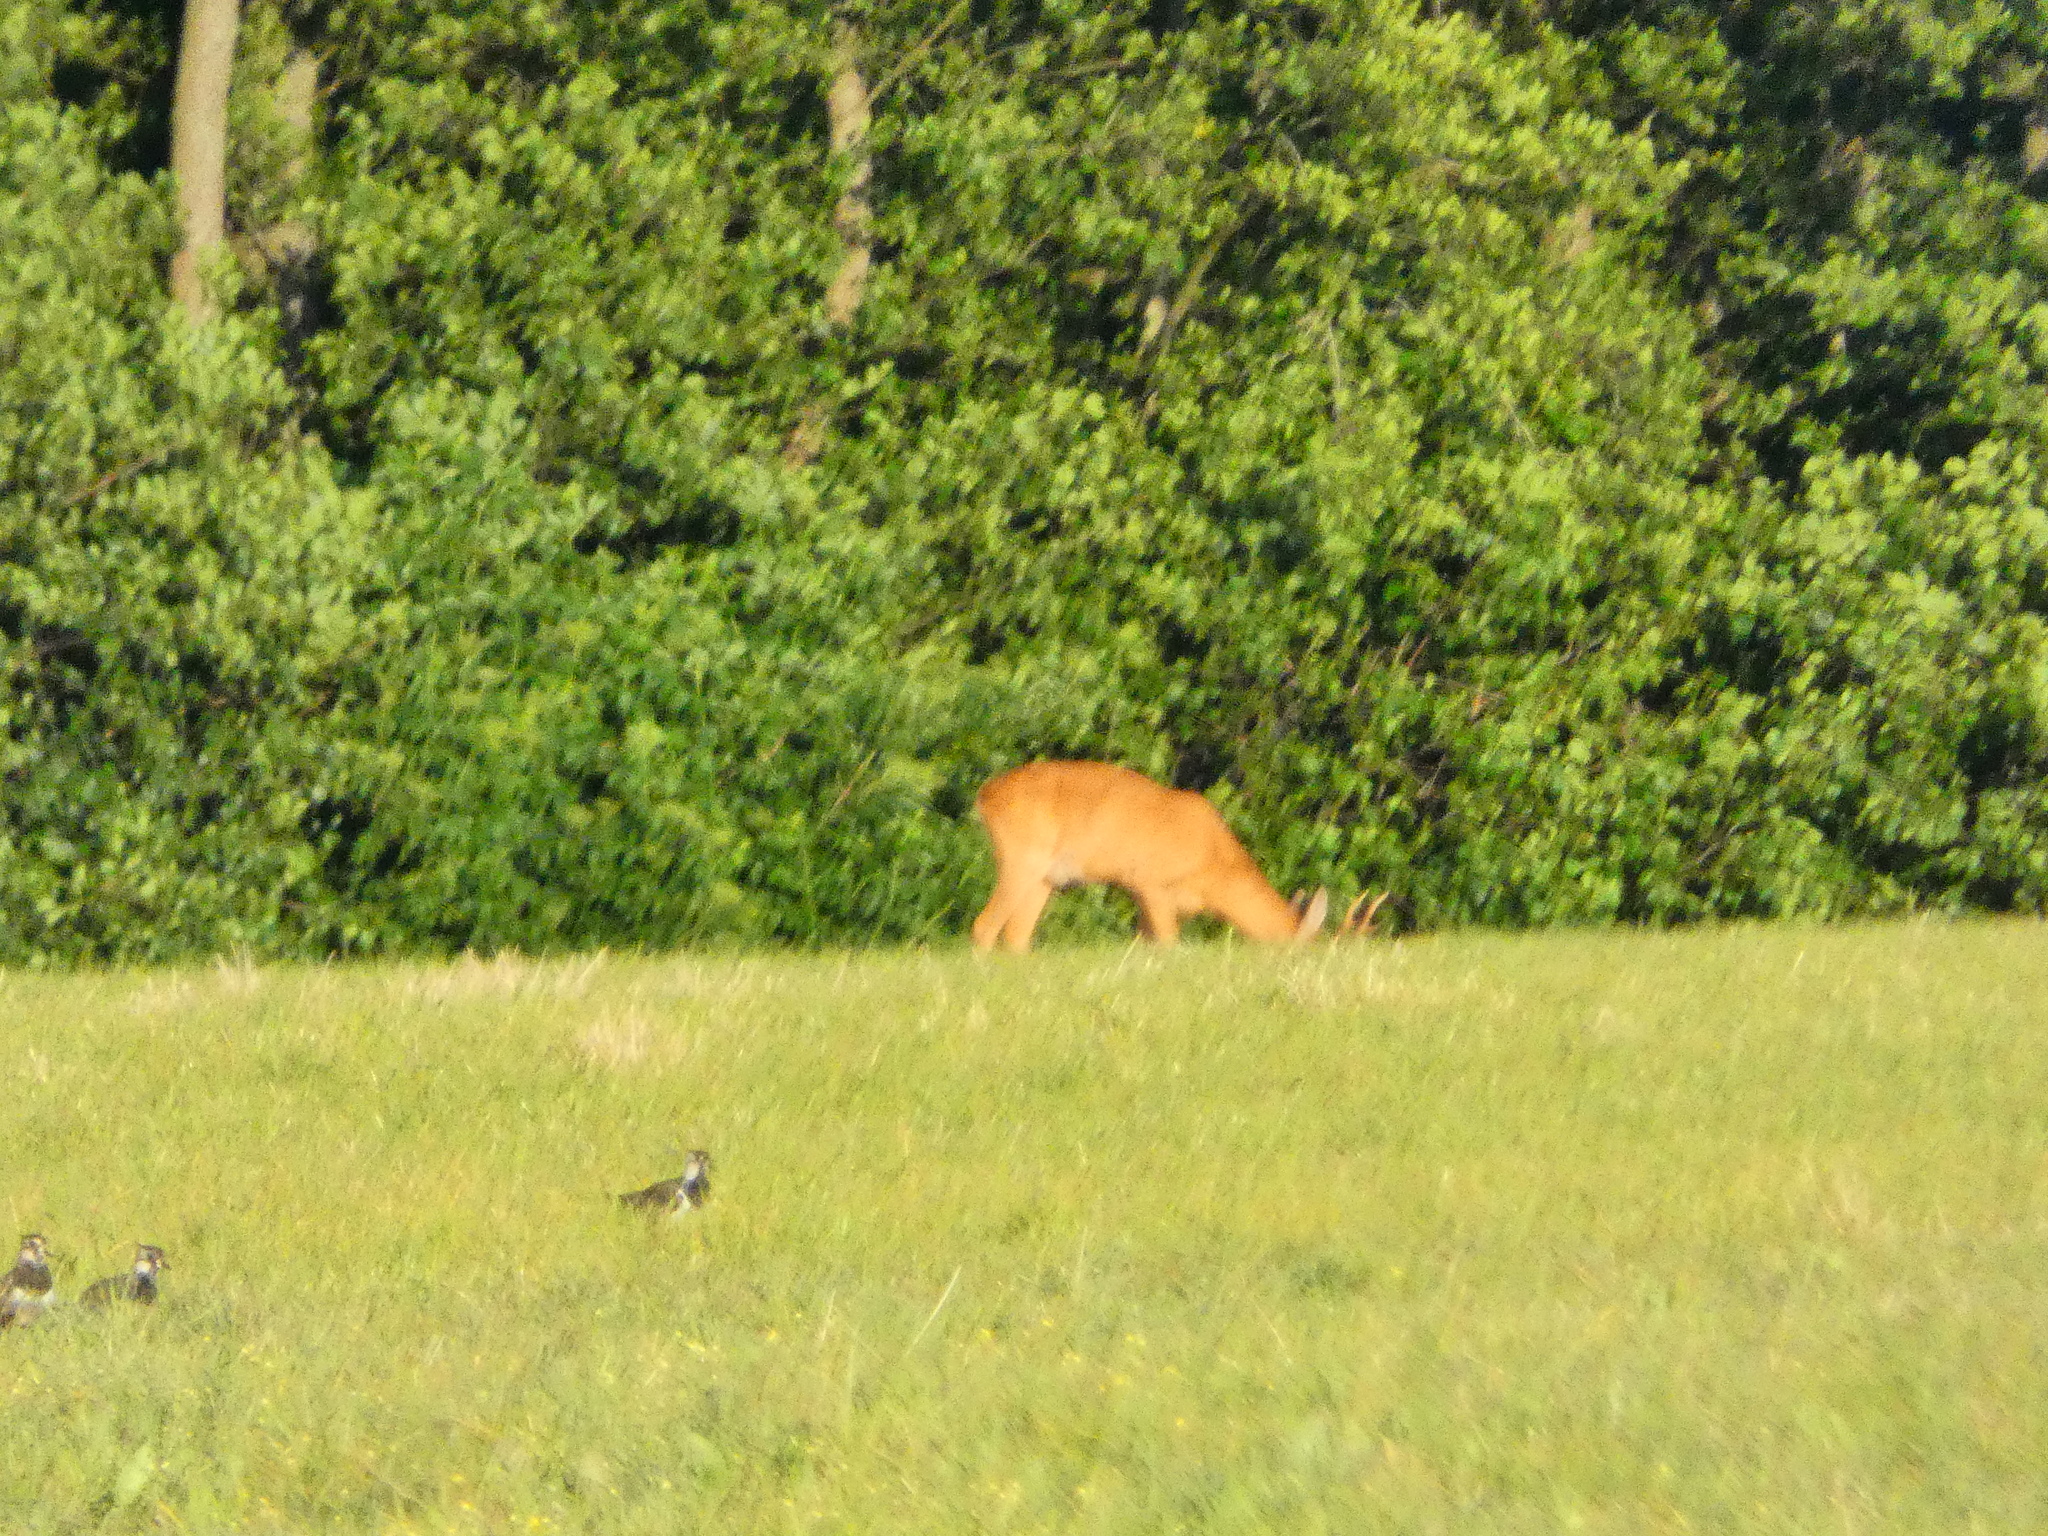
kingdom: Animalia
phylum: Chordata
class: Mammalia
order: Artiodactyla
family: Cervidae
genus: Capreolus
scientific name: Capreolus capreolus
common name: Western roe deer
